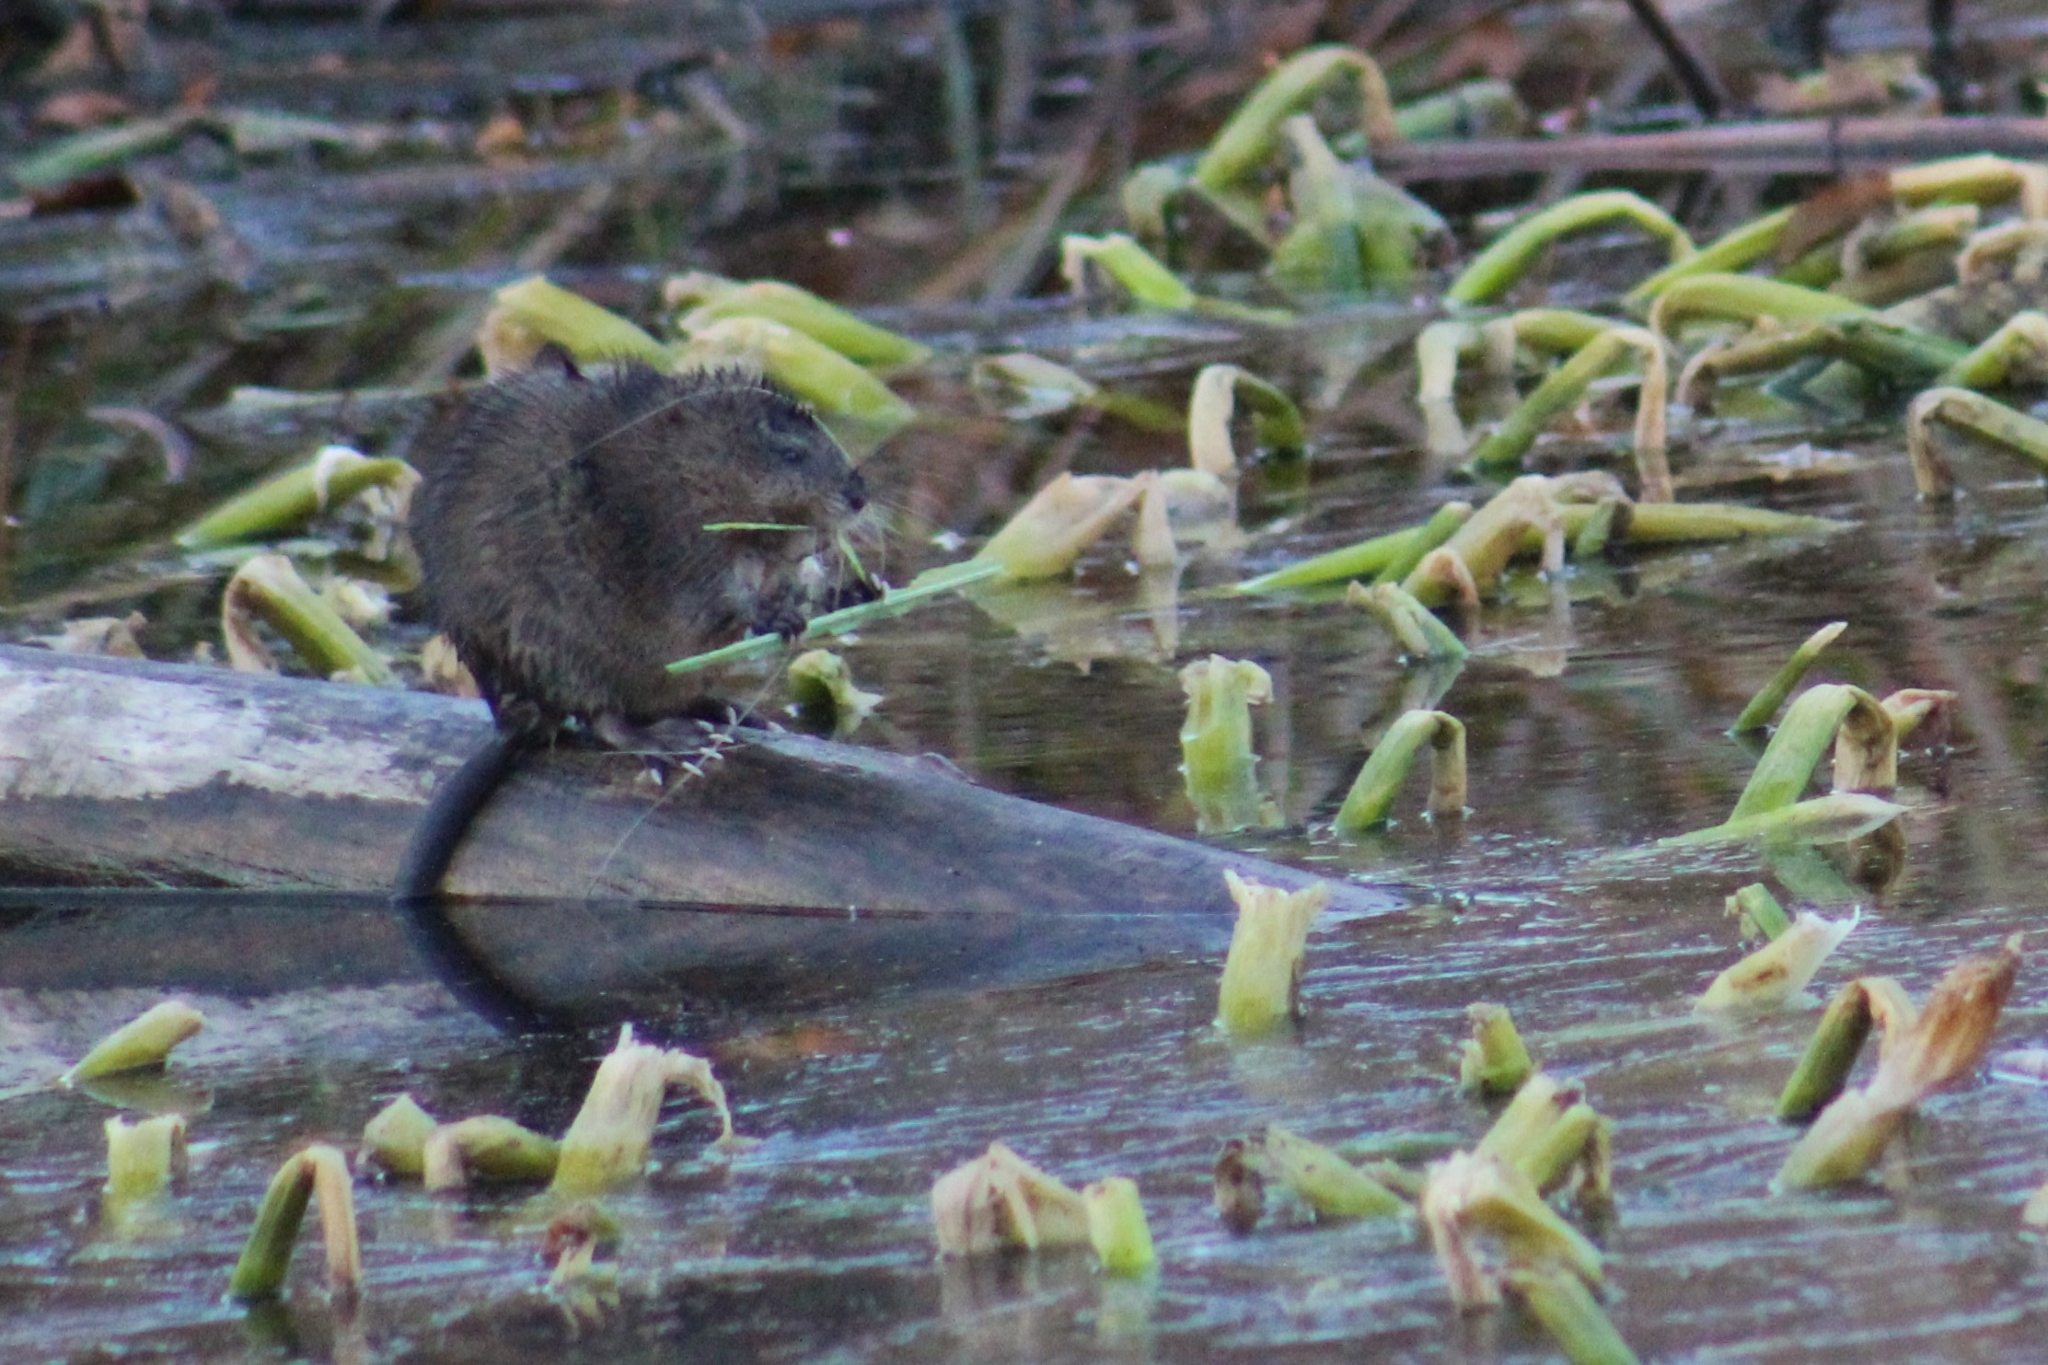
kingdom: Animalia
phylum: Chordata
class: Mammalia
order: Rodentia
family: Cricetidae
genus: Ondatra
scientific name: Ondatra zibethicus
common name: Muskrat
